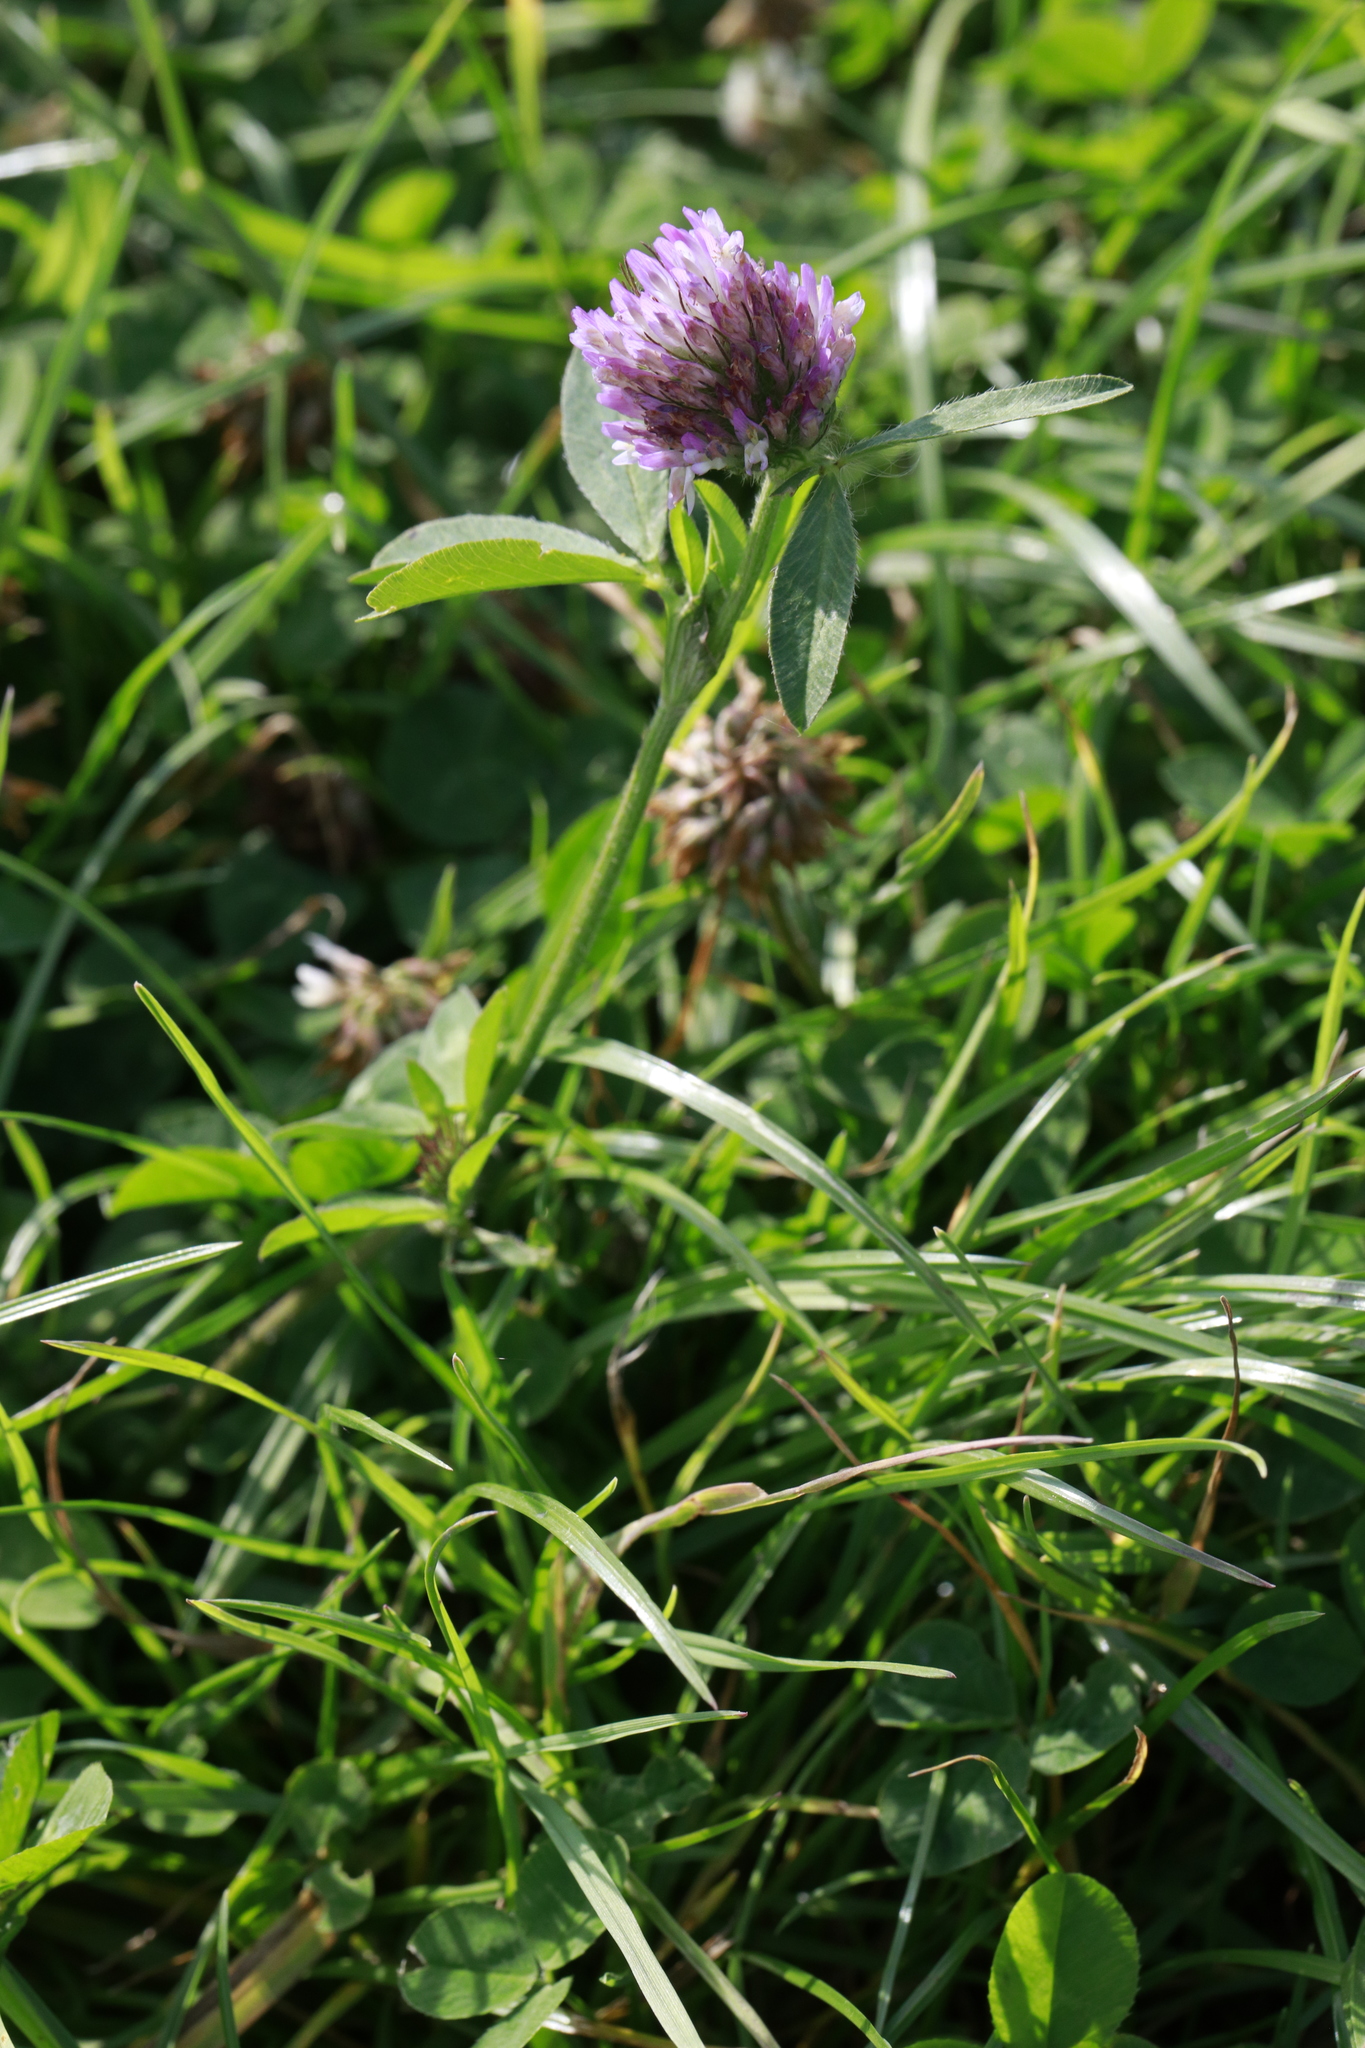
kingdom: Plantae
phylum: Tracheophyta
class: Magnoliopsida
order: Fabales
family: Fabaceae
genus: Trifolium
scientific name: Trifolium pratense
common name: Red clover
